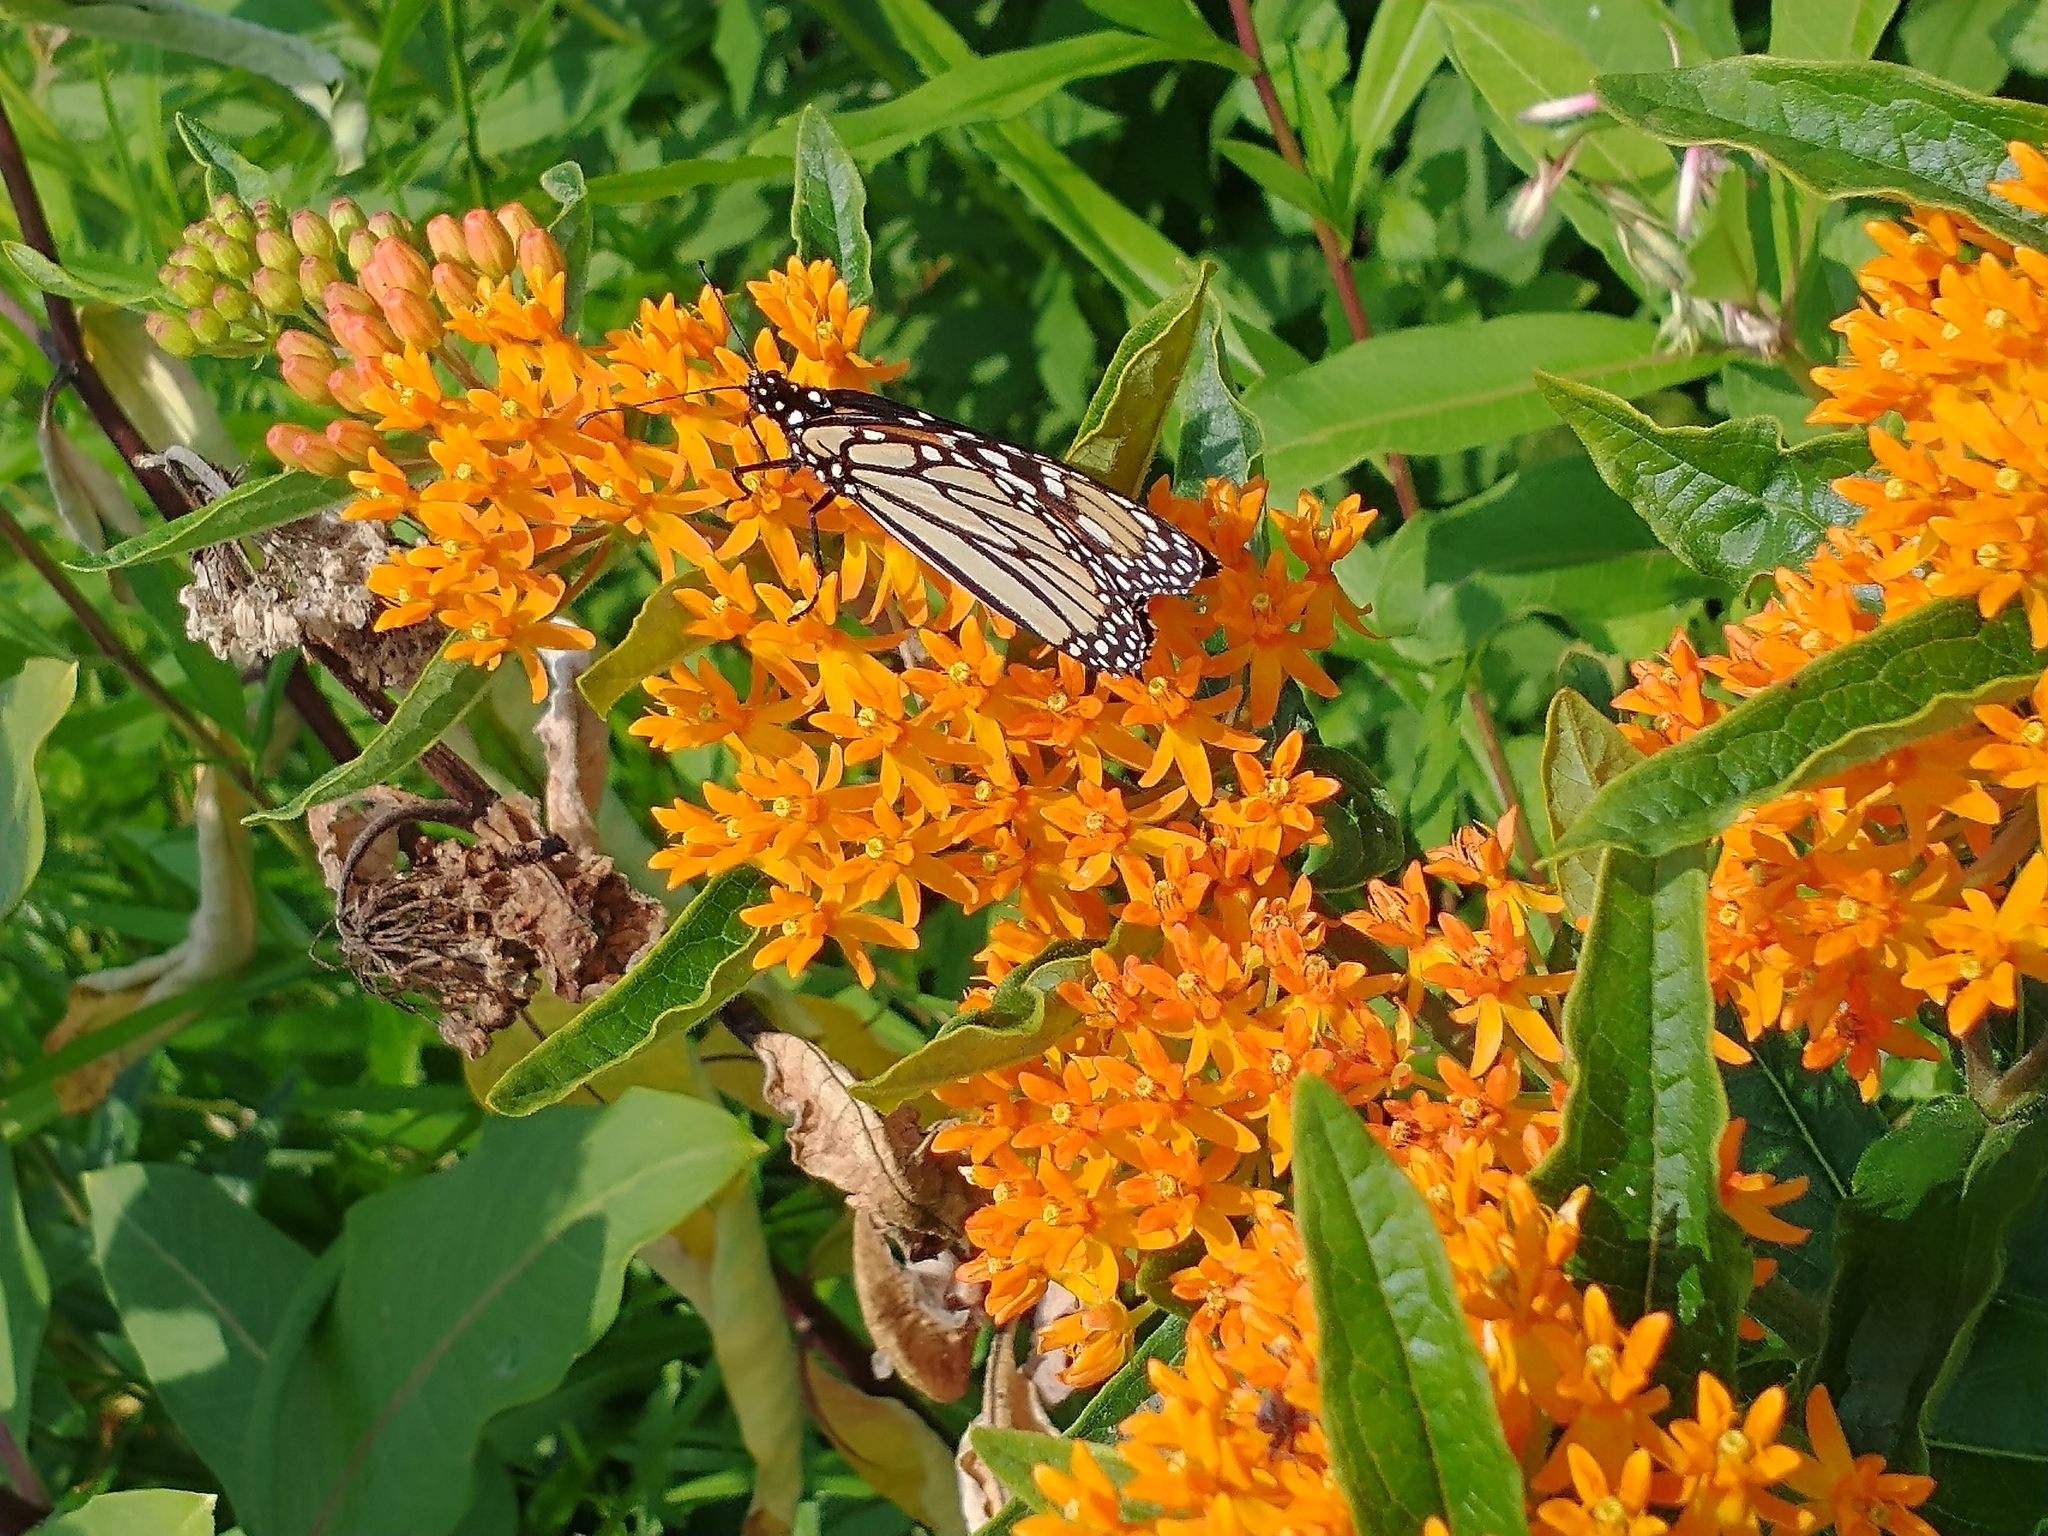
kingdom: Animalia
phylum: Arthropoda
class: Insecta
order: Lepidoptera
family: Nymphalidae
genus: Danaus
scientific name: Danaus plexippus
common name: Monarch
